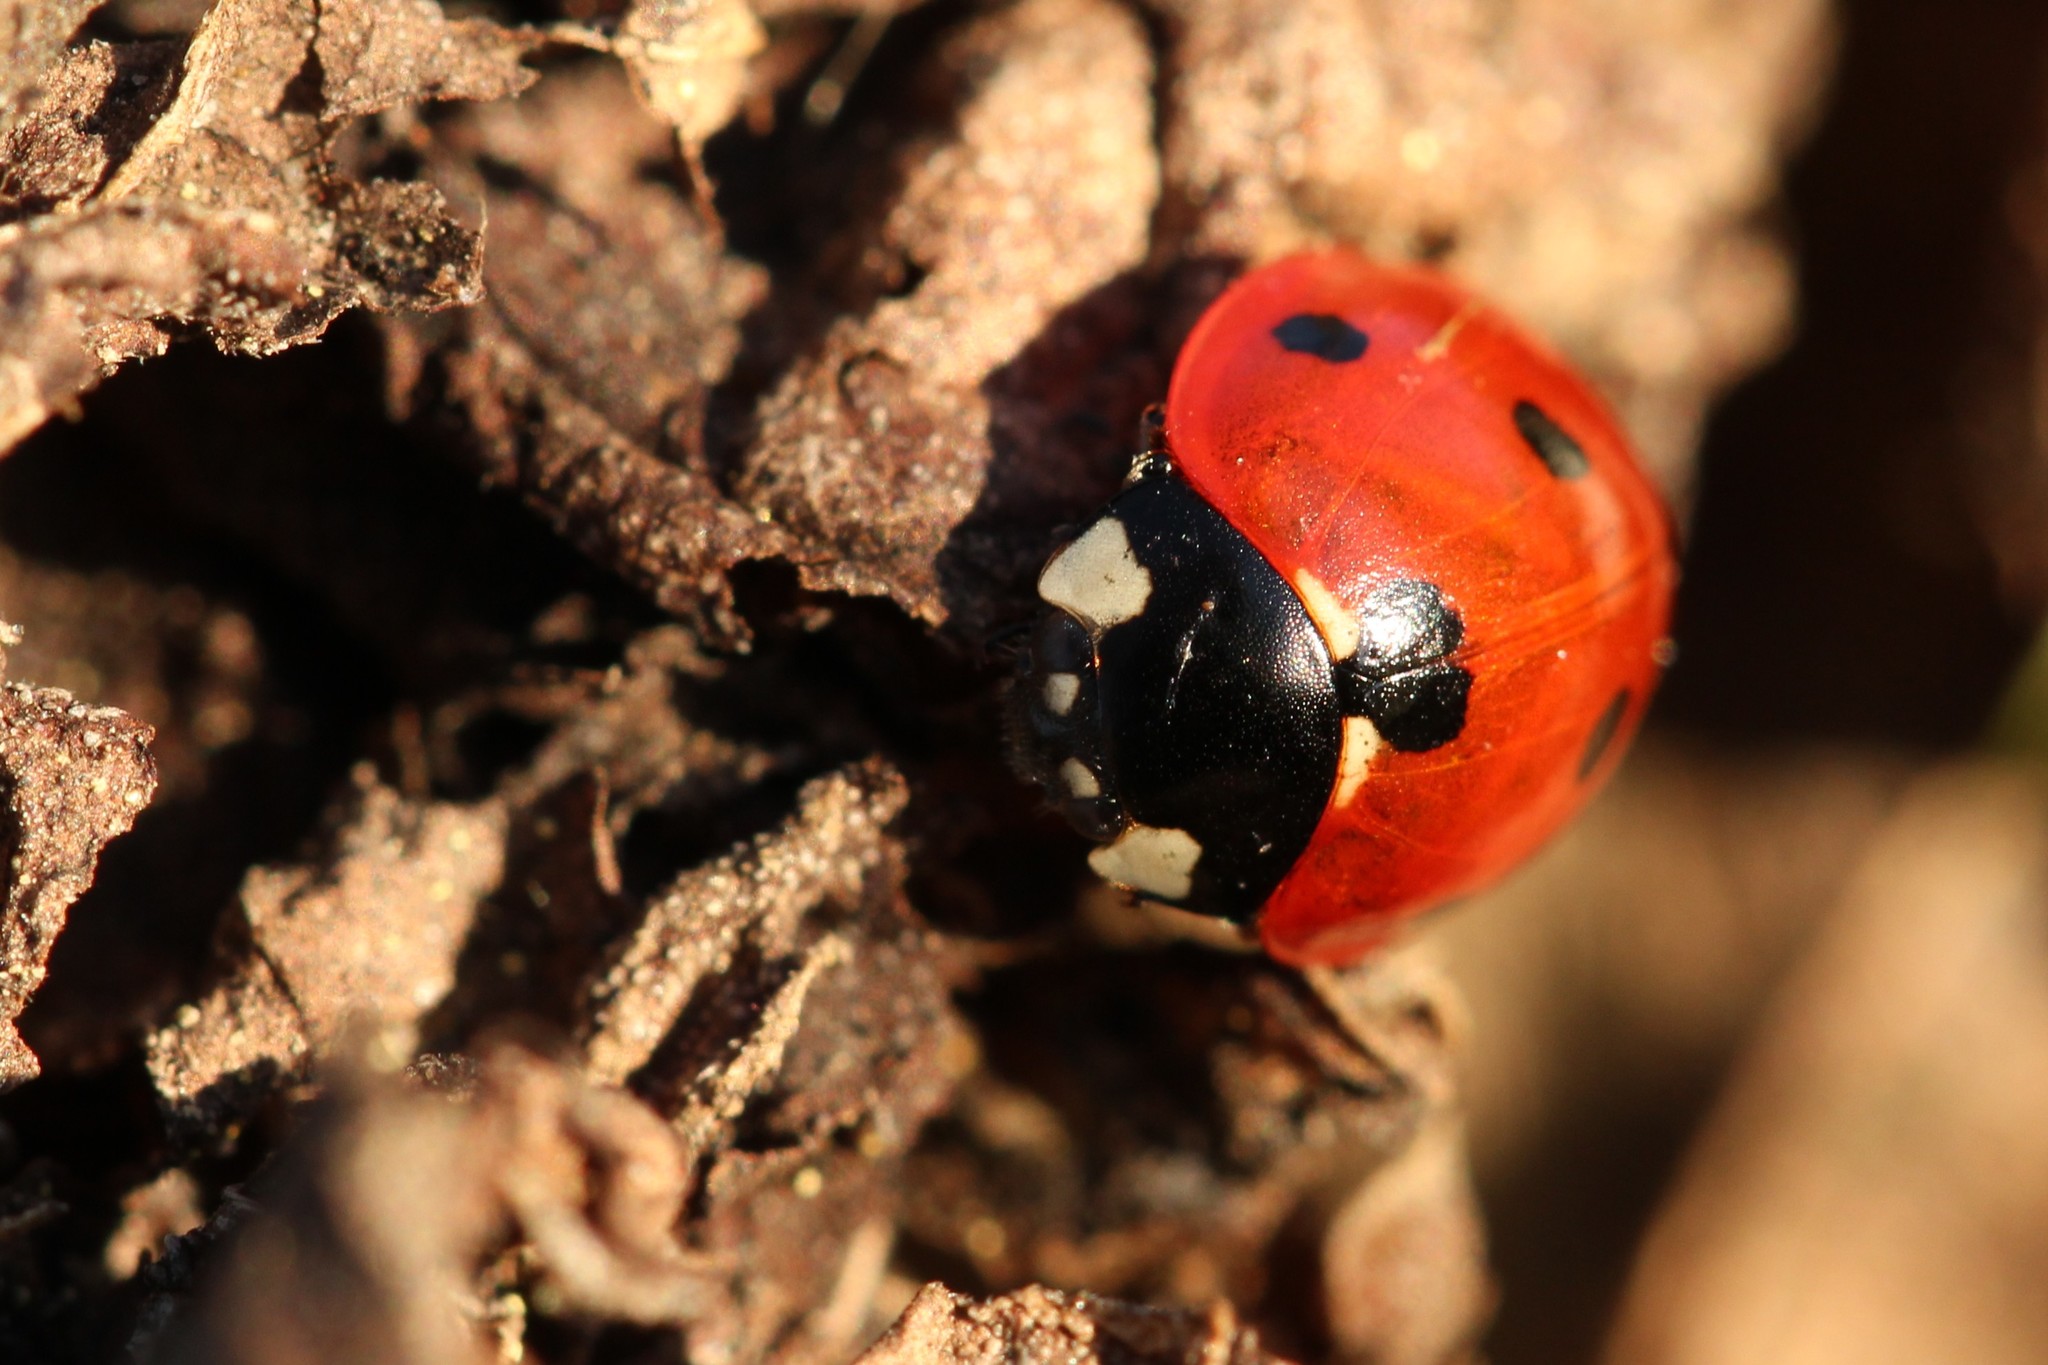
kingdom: Animalia
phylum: Arthropoda
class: Insecta
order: Coleoptera
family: Coccinellidae
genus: Coccinella
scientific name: Coccinella septempunctata
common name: Sevenspotted lady beetle
